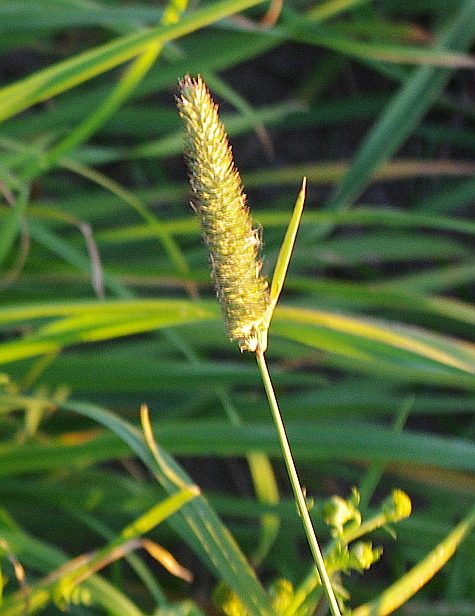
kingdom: Plantae
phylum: Tracheophyta
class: Liliopsida
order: Poales
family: Poaceae
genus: Phleum
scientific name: Phleum pratense
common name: Timothy grass
